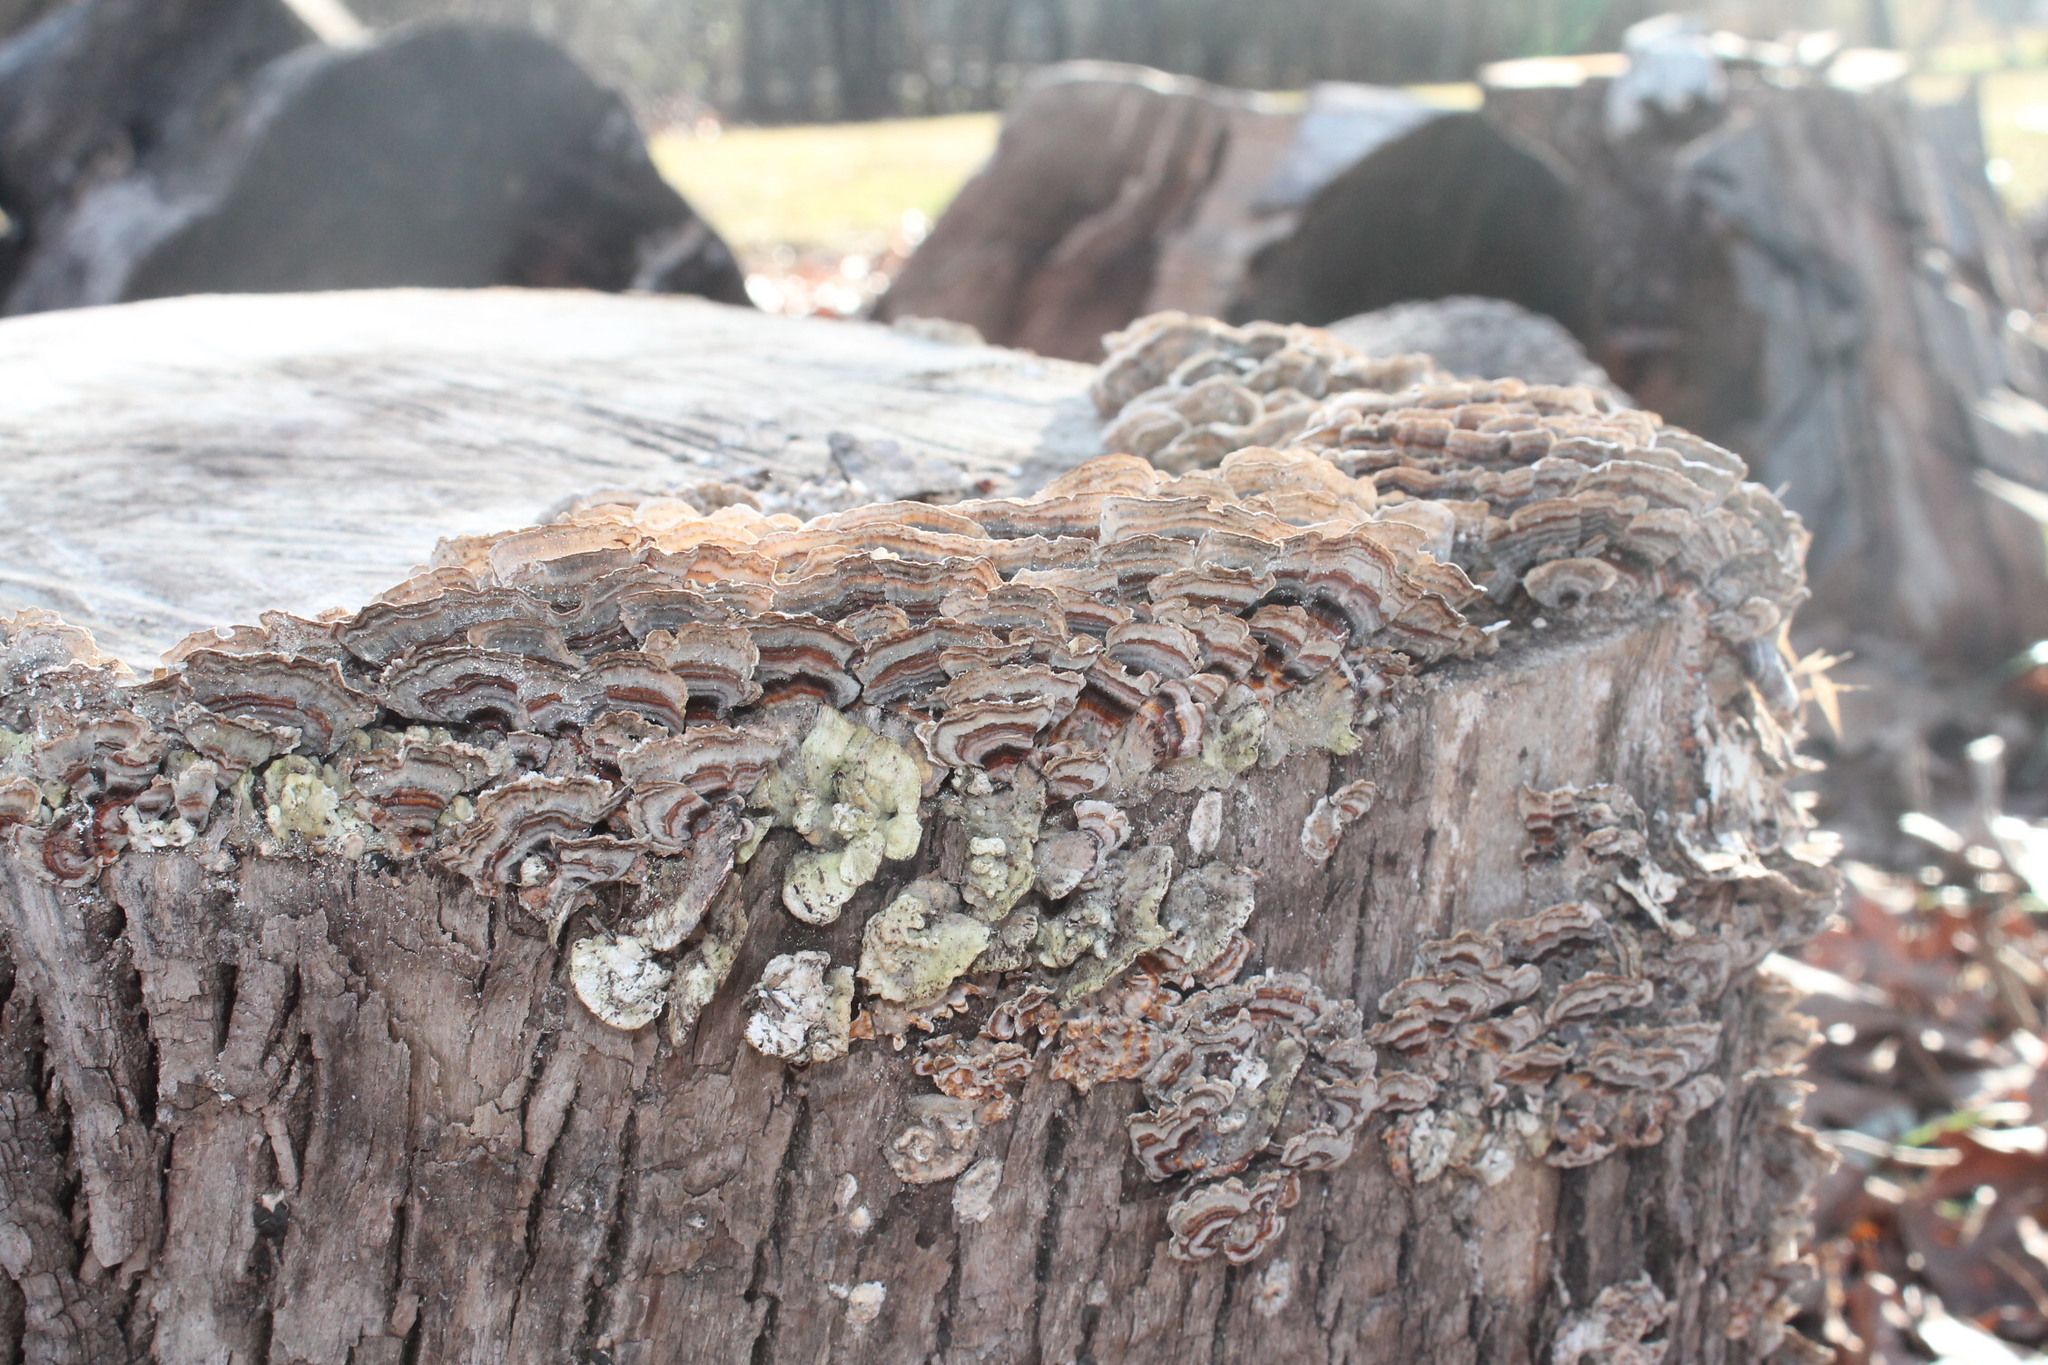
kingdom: Fungi
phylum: Basidiomycota
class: Agaricomycetes
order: Polyporales
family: Polyporaceae
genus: Trametes
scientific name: Trametes versicolor
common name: Turkeytail
